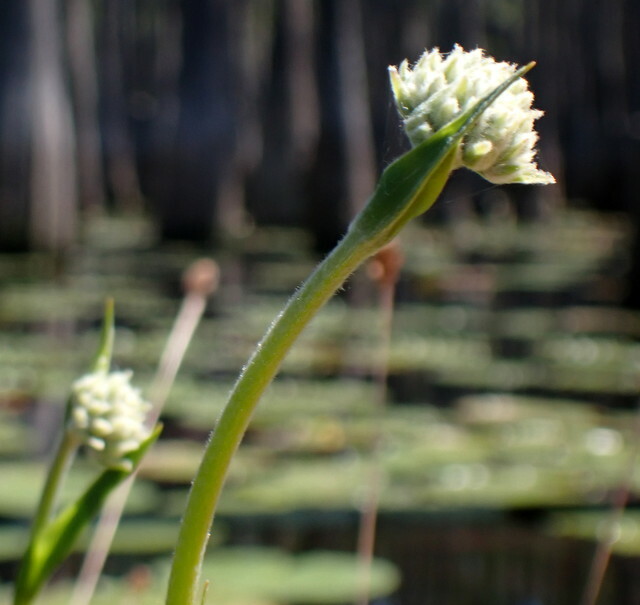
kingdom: Plantae
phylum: Tracheophyta
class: Liliopsida
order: Commelinales
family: Haemodoraceae
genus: Lachnanthes
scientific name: Lachnanthes caroliana
